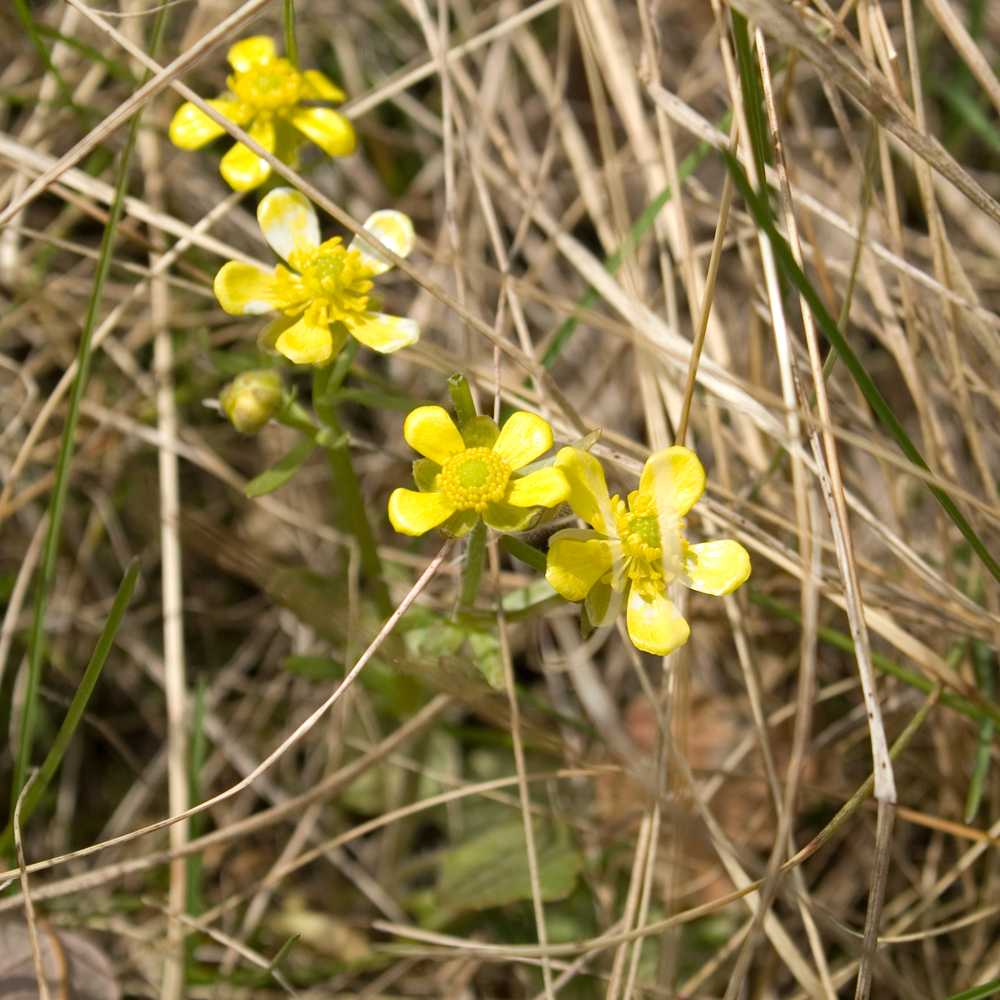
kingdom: Plantae
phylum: Tracheophyta
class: Magnoliopsida
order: Ranunculales
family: Ranunculaceae
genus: Ranunculus
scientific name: Ranunculus rhomboideus
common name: Prairie buttercup
